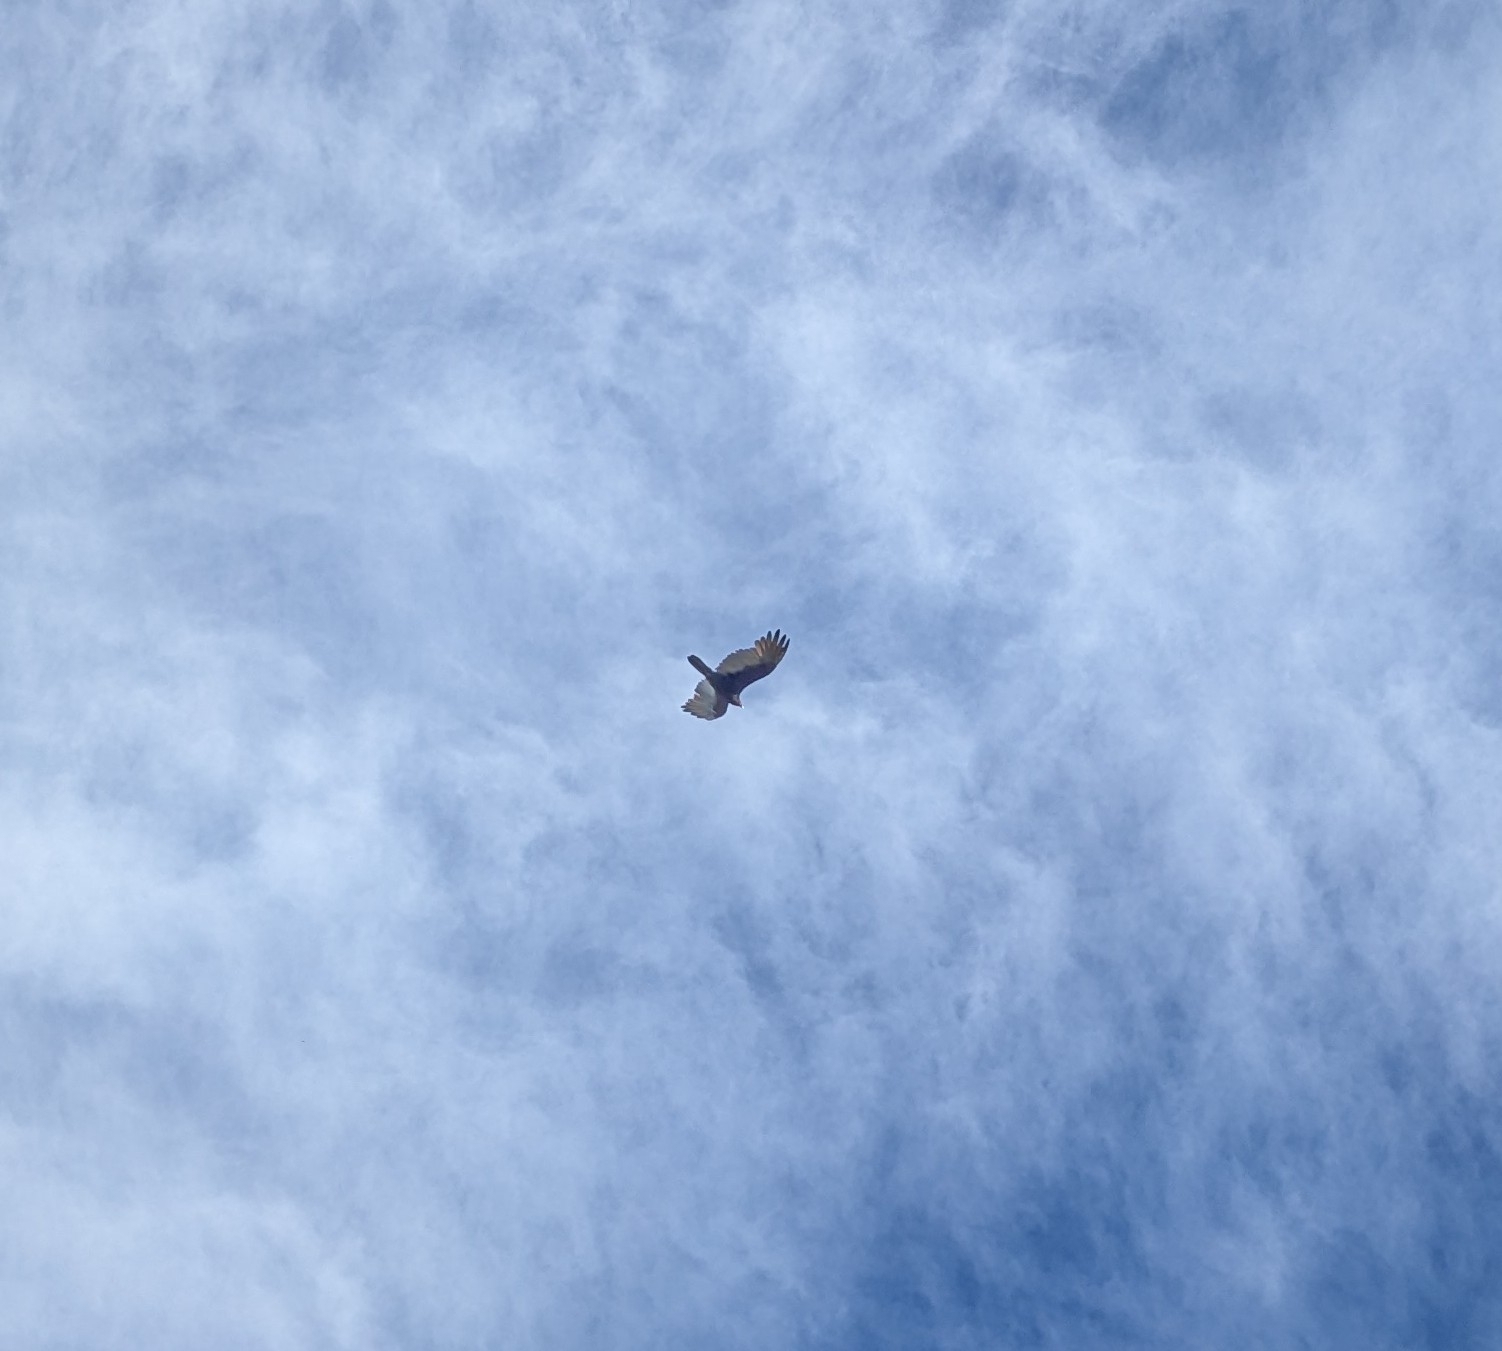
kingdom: Animalia
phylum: Chordata
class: Aves
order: Accipitriformes
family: Cathartidae
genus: Cathartes
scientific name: Cathartes aura
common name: Turkey vulture
